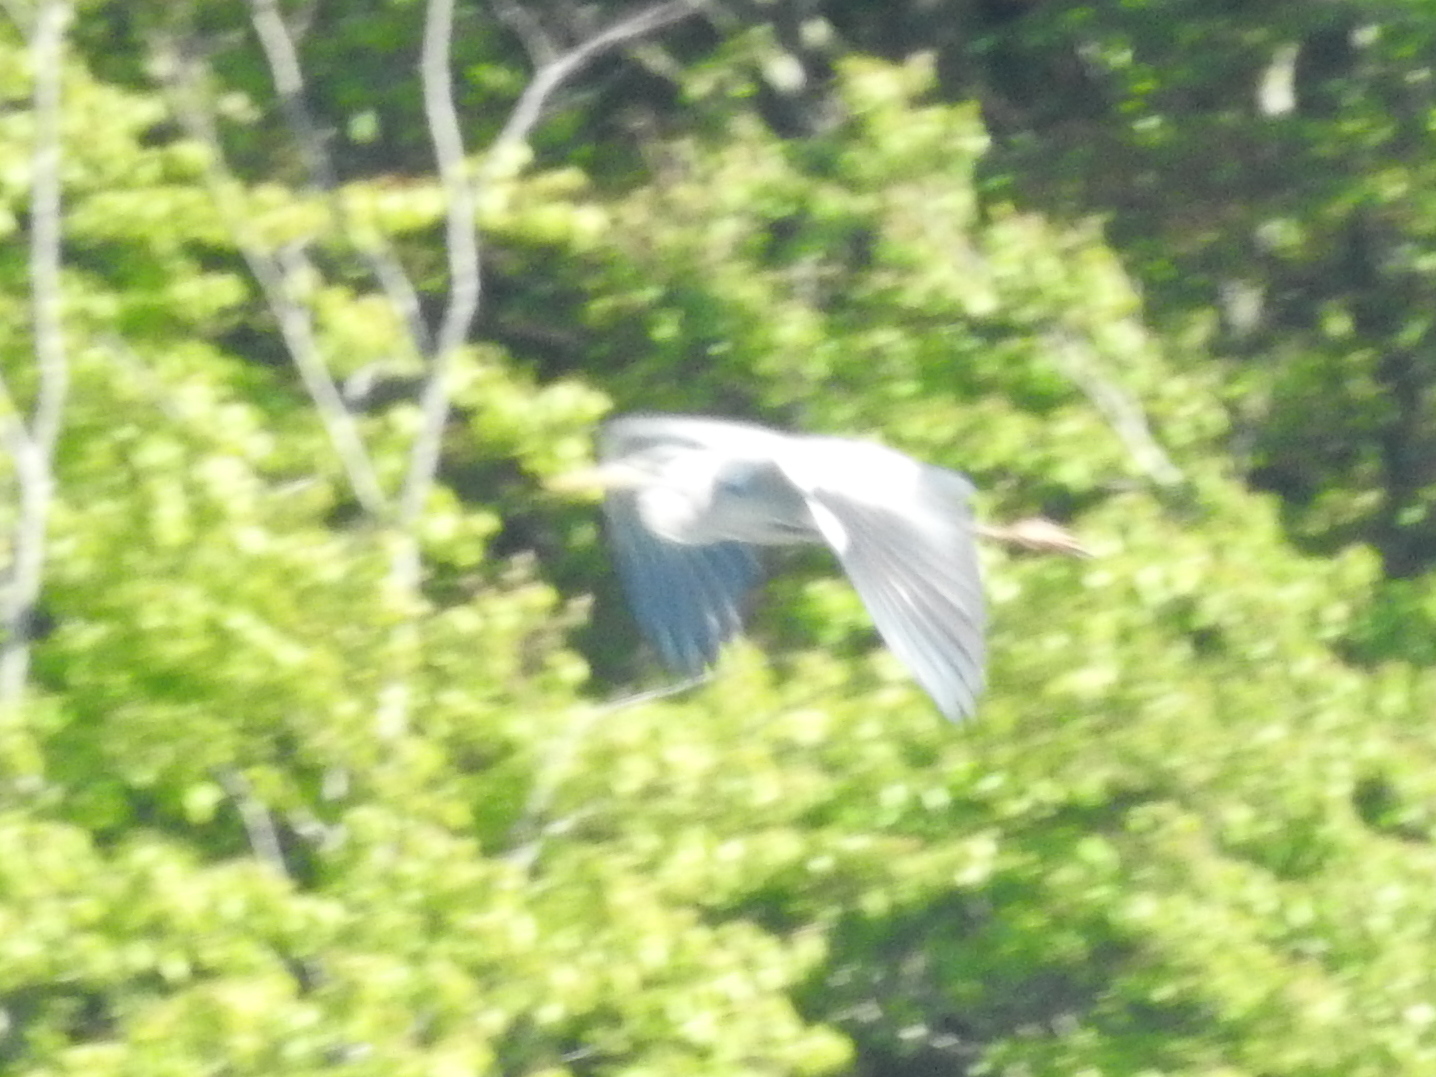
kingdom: Animalia
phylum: Chordata
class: Aves
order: Pelecaniformes
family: Ardeidae
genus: Ardea
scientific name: Ardea cinerea
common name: Grey heron
